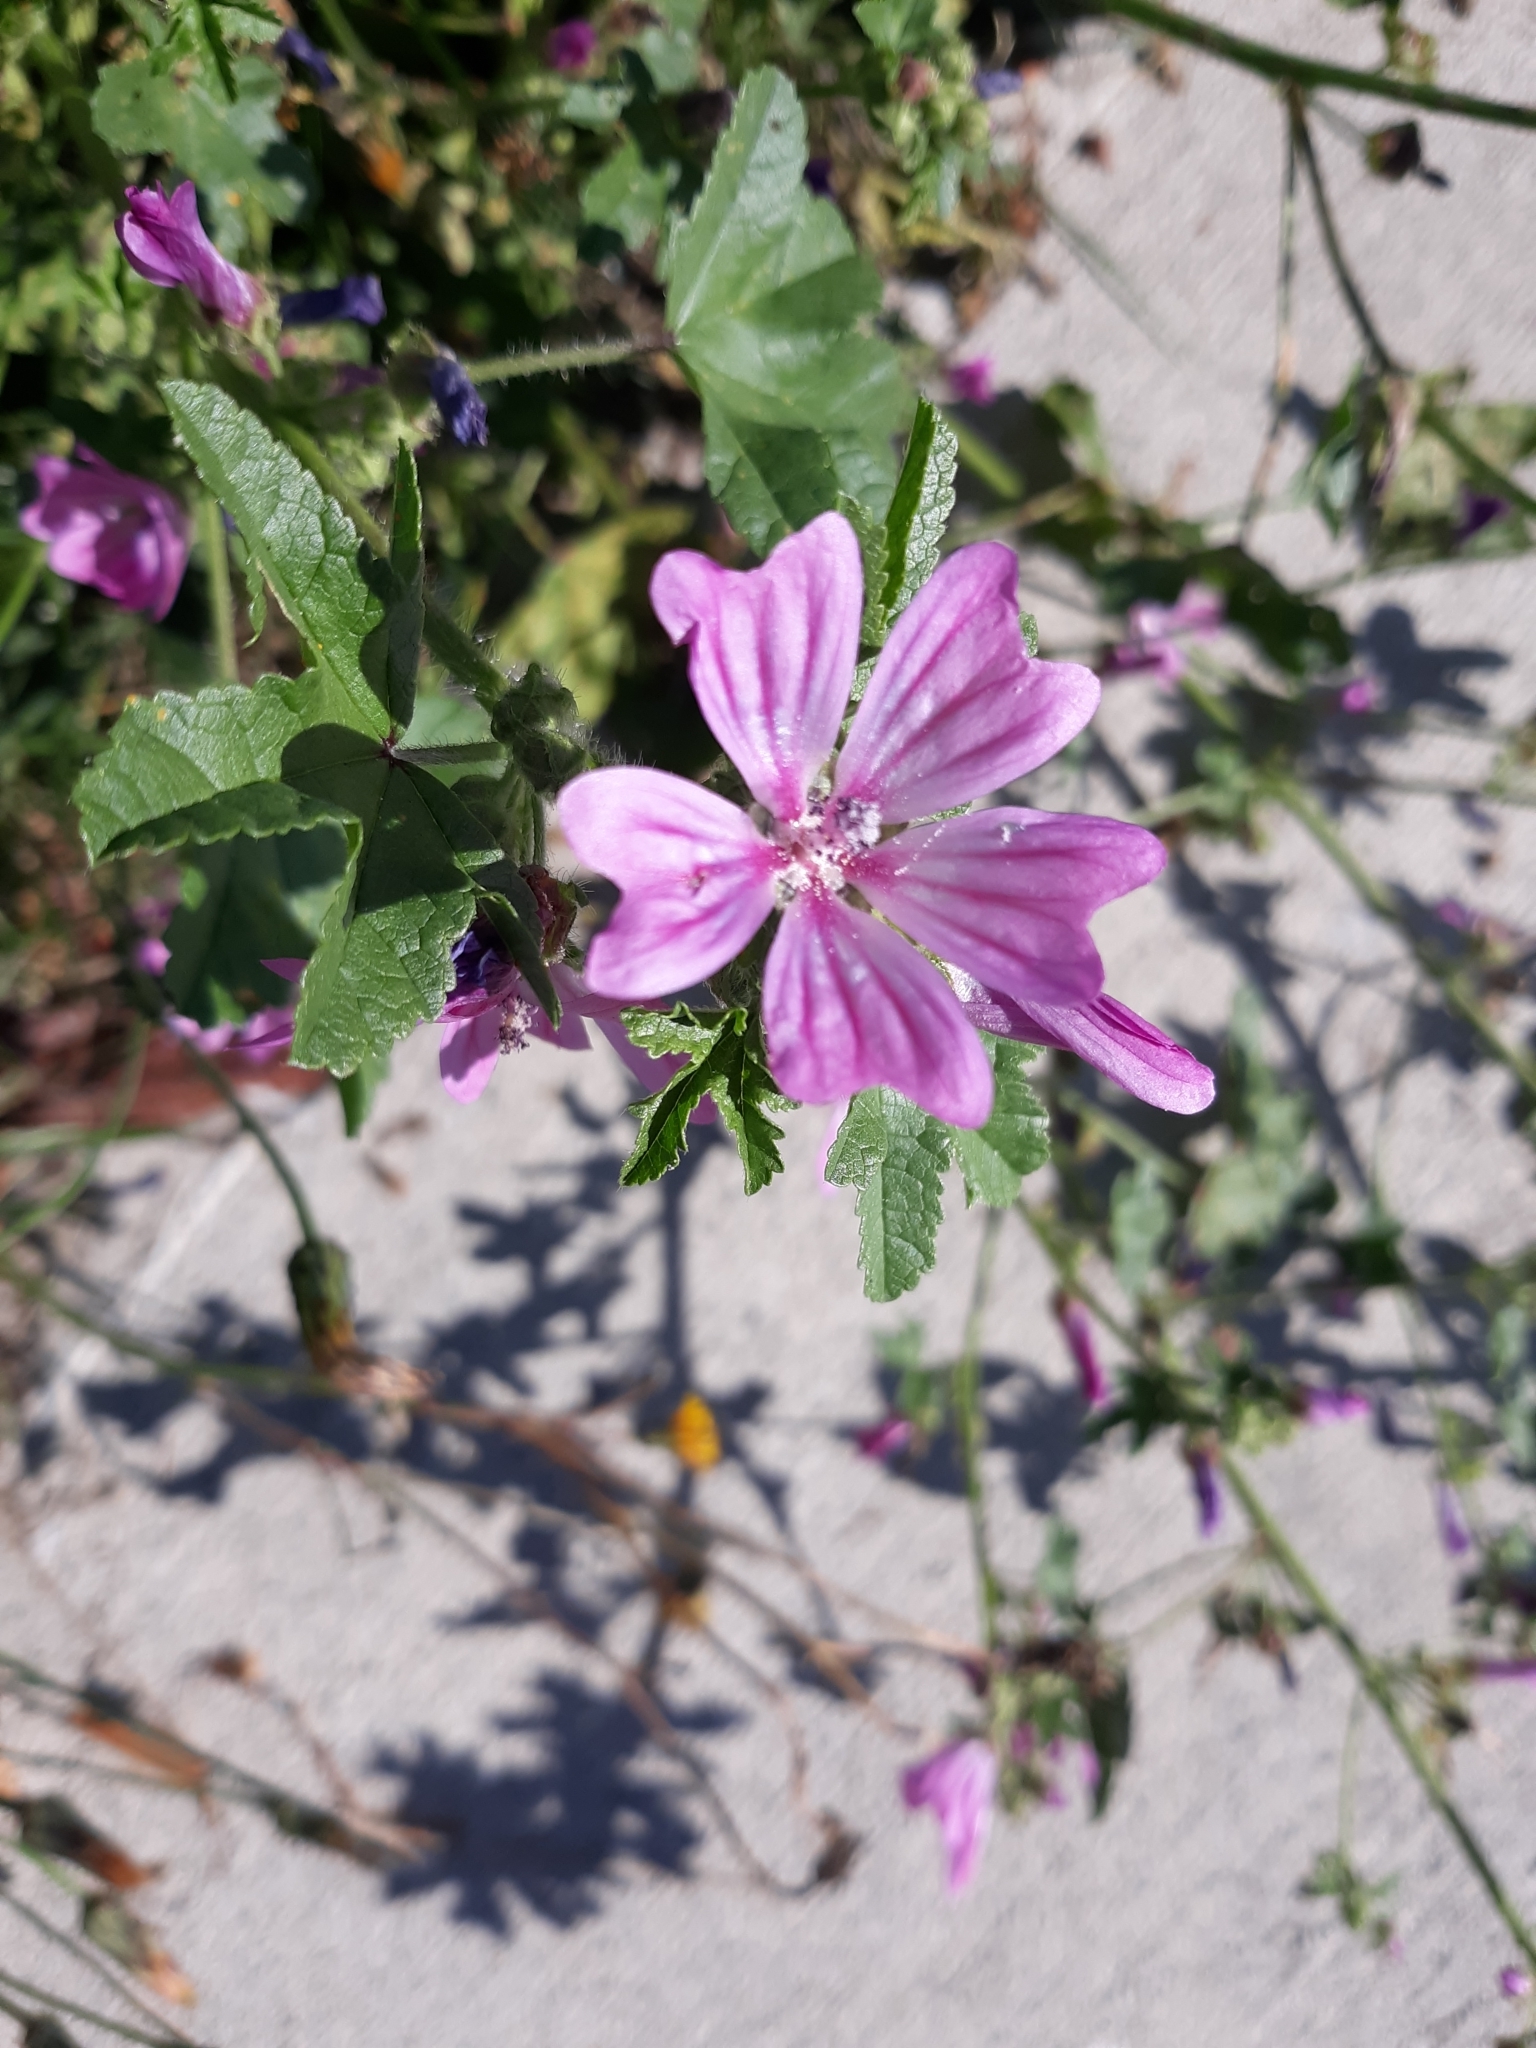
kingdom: Plantae
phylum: Tracheophyta
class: Magnoliopsida
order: Malvales
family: Malvaceae
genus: Malva
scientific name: Malva sylvestris
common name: Common mallow
